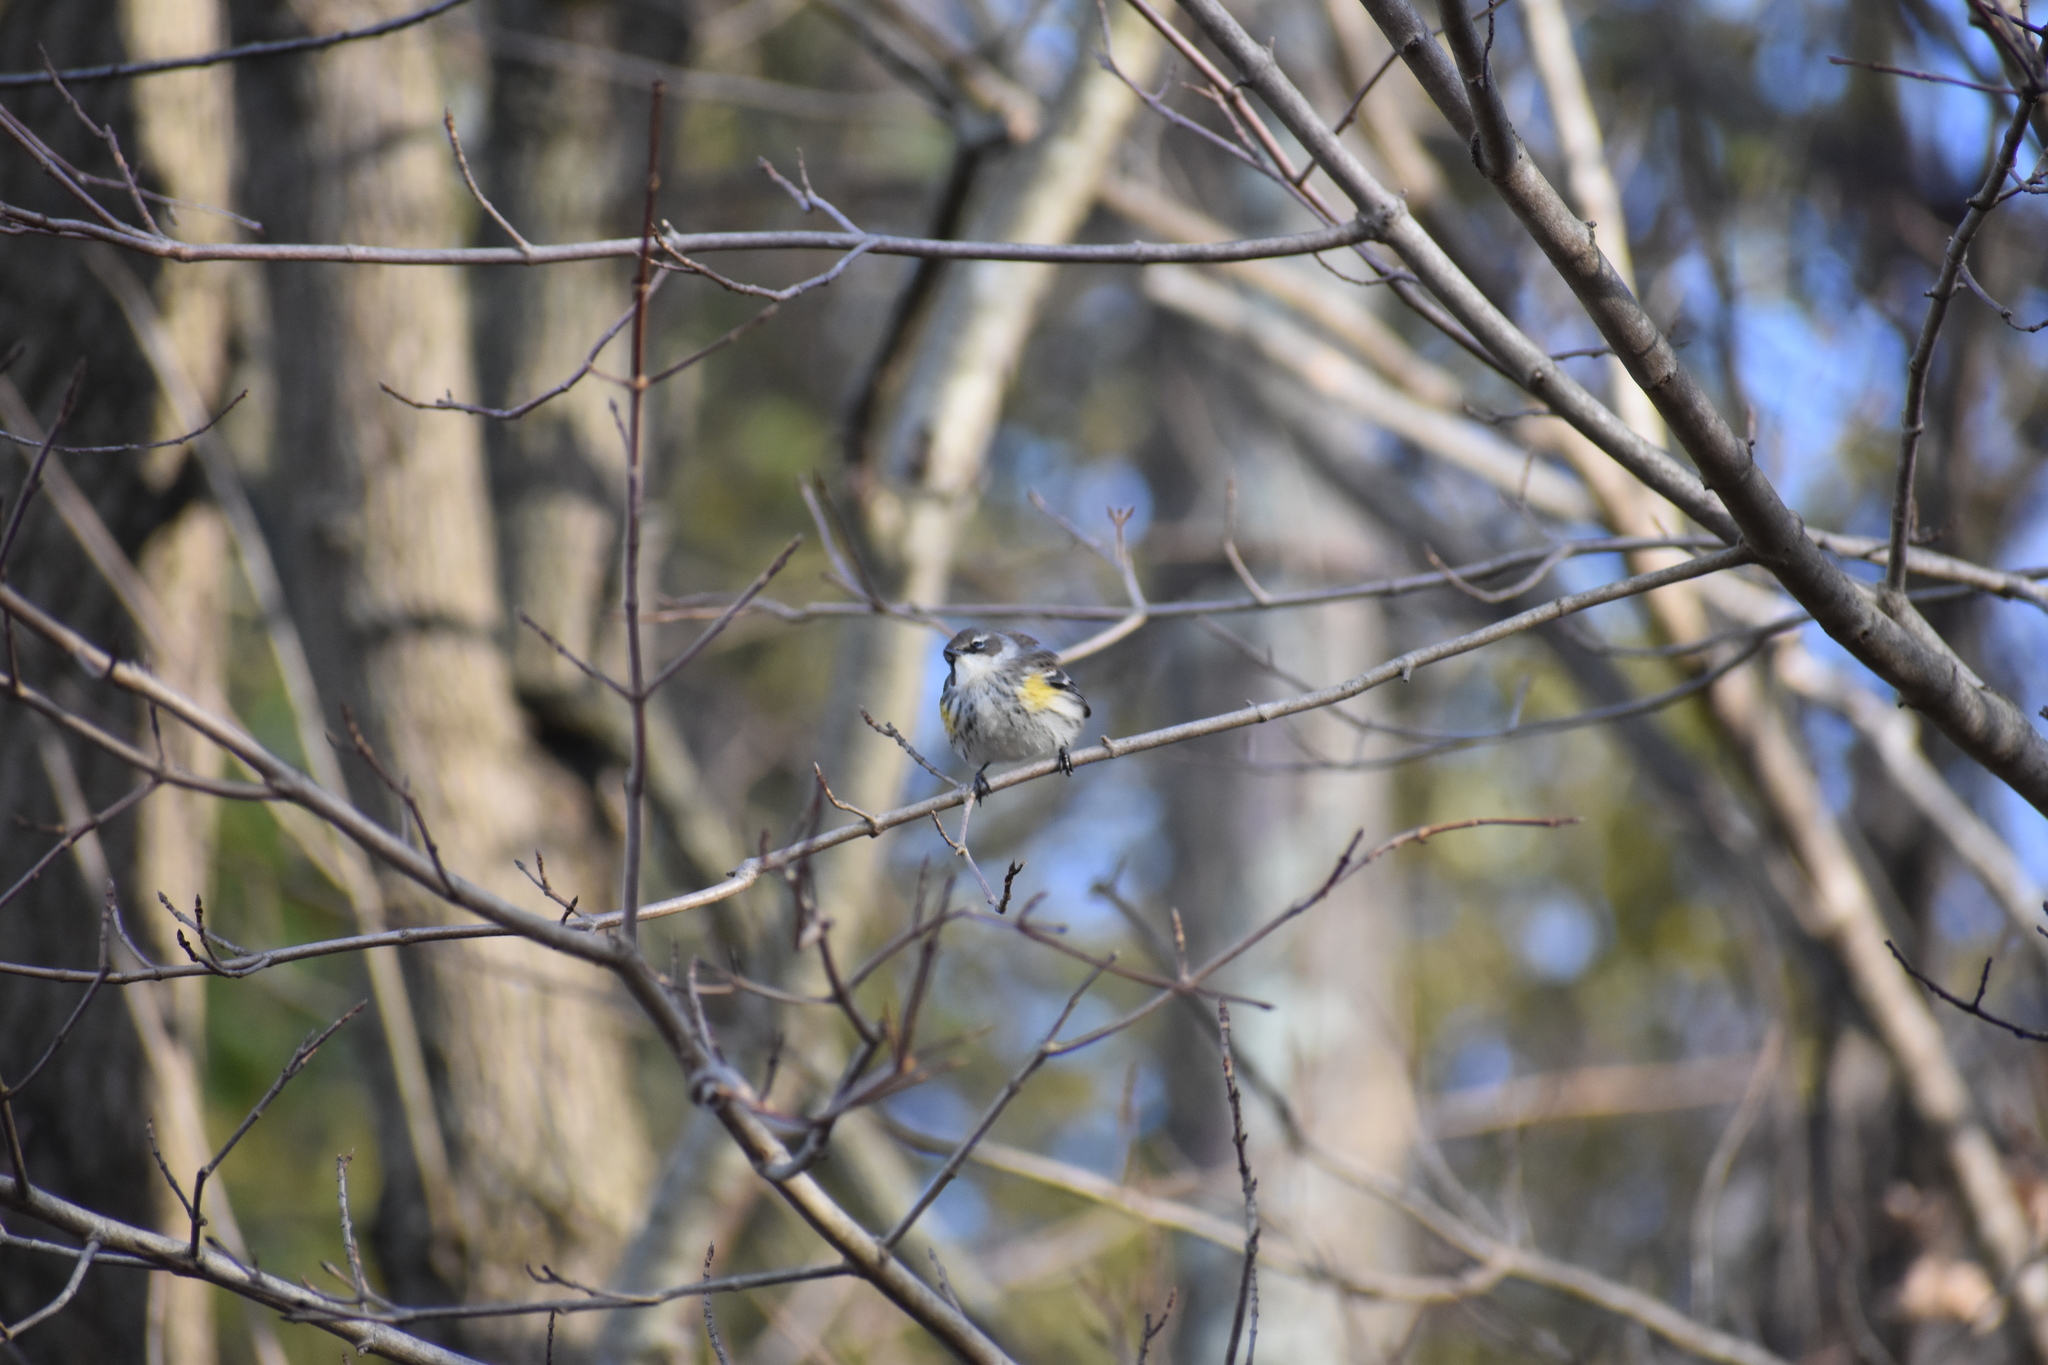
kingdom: Animalia
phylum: Chordata
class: Aves
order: Passeriformes
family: Parulidae
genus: Setophaga
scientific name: Setophaga coronata
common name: Myrtle warbler
